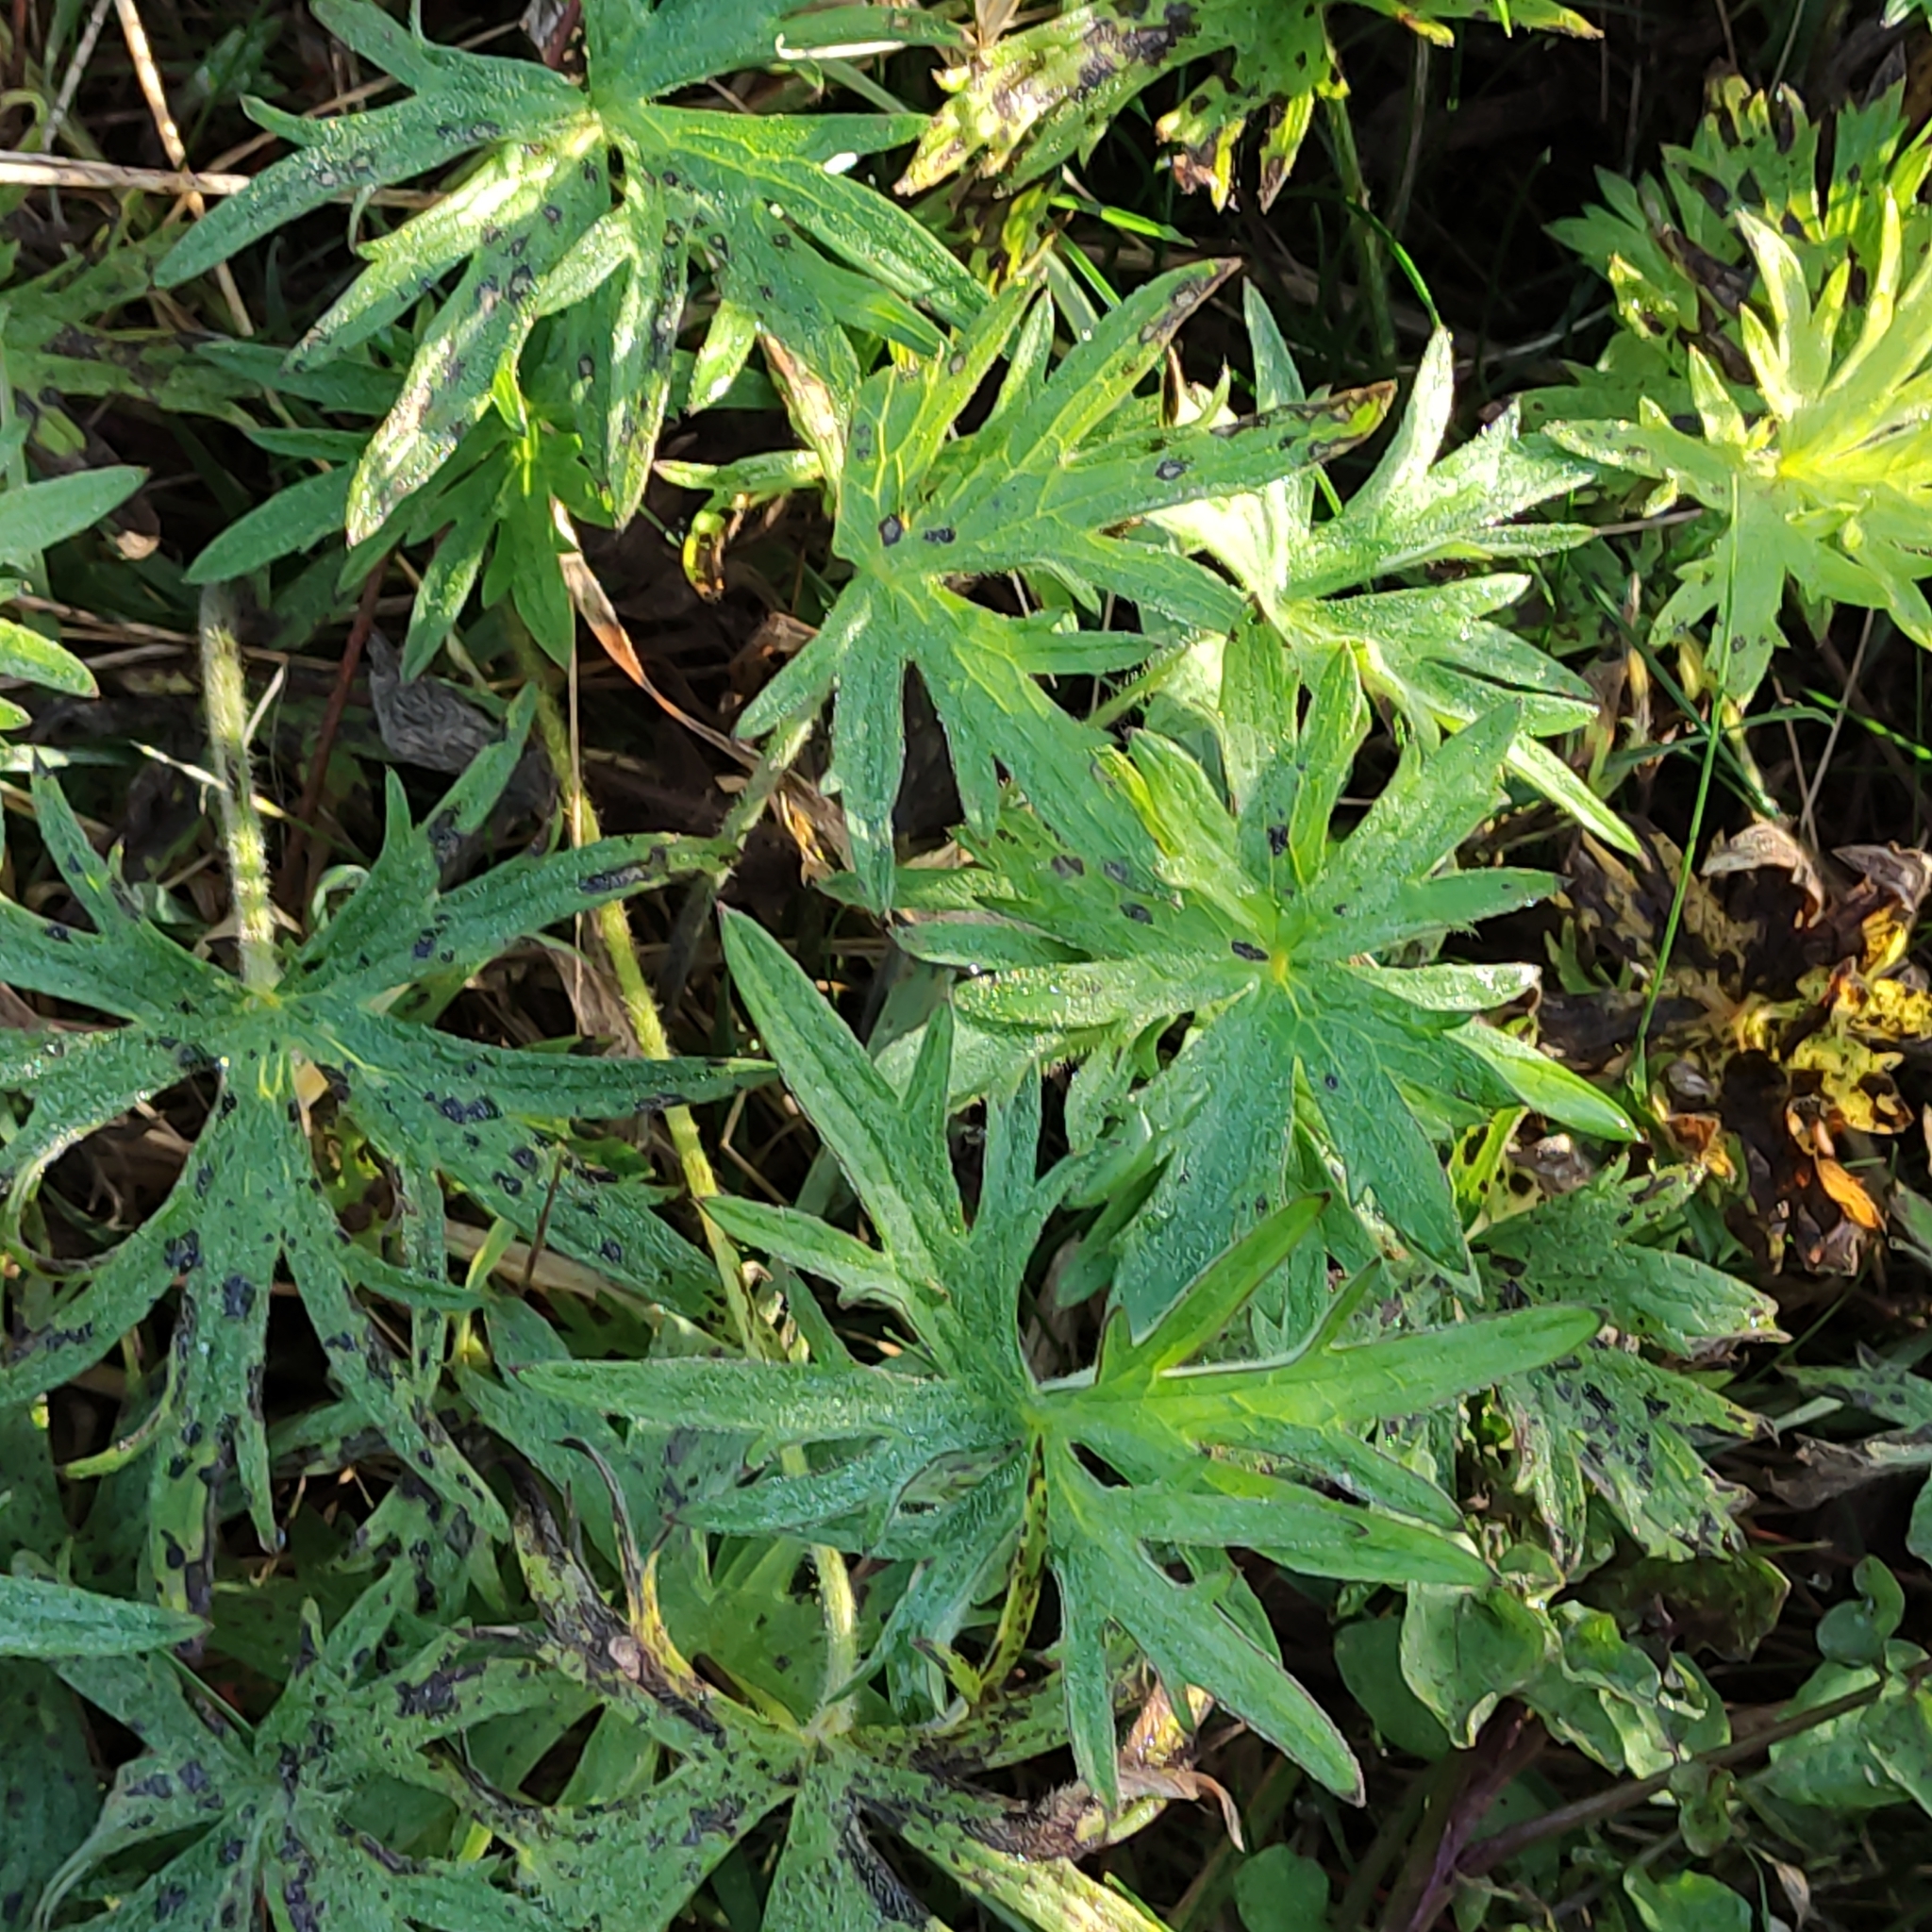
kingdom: Plantae
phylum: Tracheophyta
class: Magnoliopsida
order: Ranunculales
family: Ranunculaceae
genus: Ranunculus
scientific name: Ranunculus acris
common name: Meadow buttercup
